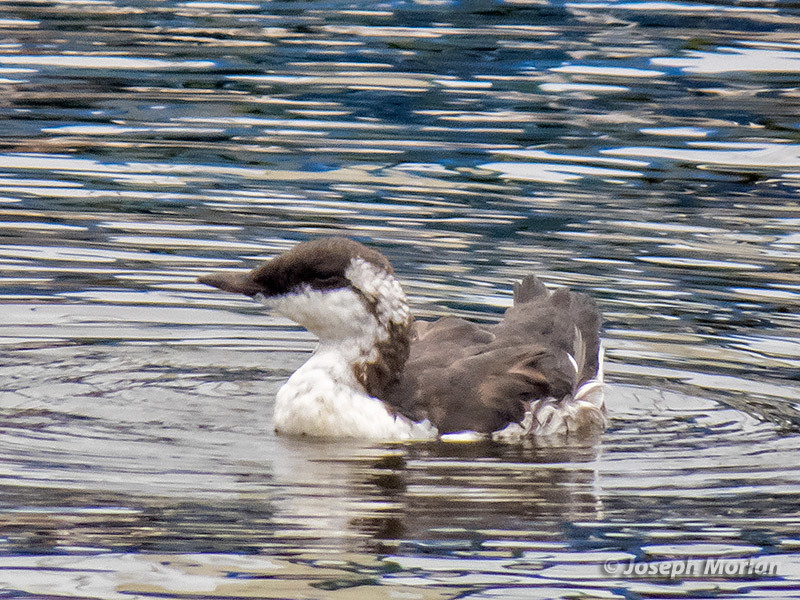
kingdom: Animalia
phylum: Chordata
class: Aves
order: Charadriiformes
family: Alcidae
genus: Uria
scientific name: Uria aalge
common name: Common murre
